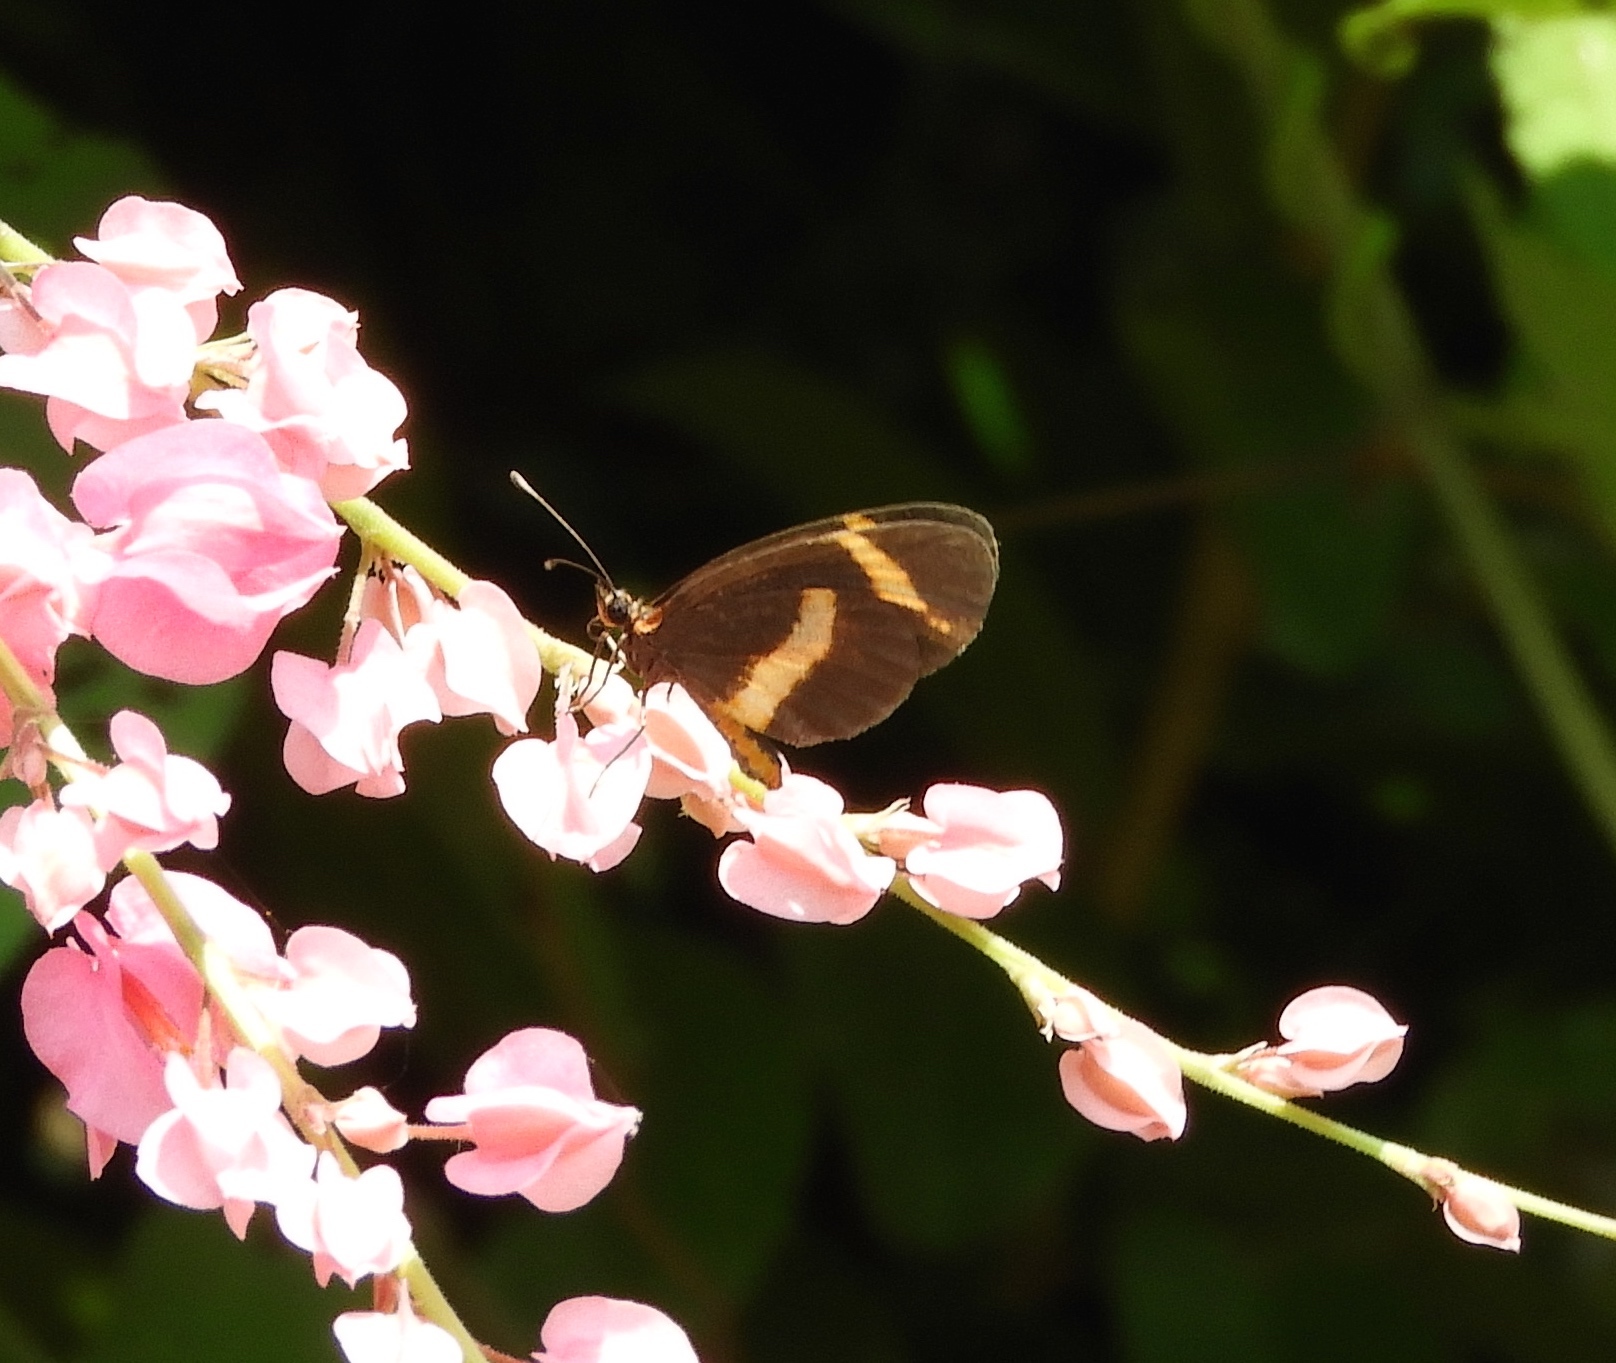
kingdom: Animalia
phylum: Arthropoda
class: Insecta
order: Lepidoptera
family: Nymphalidae
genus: Microtia
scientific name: Microtia elva
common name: Elf
